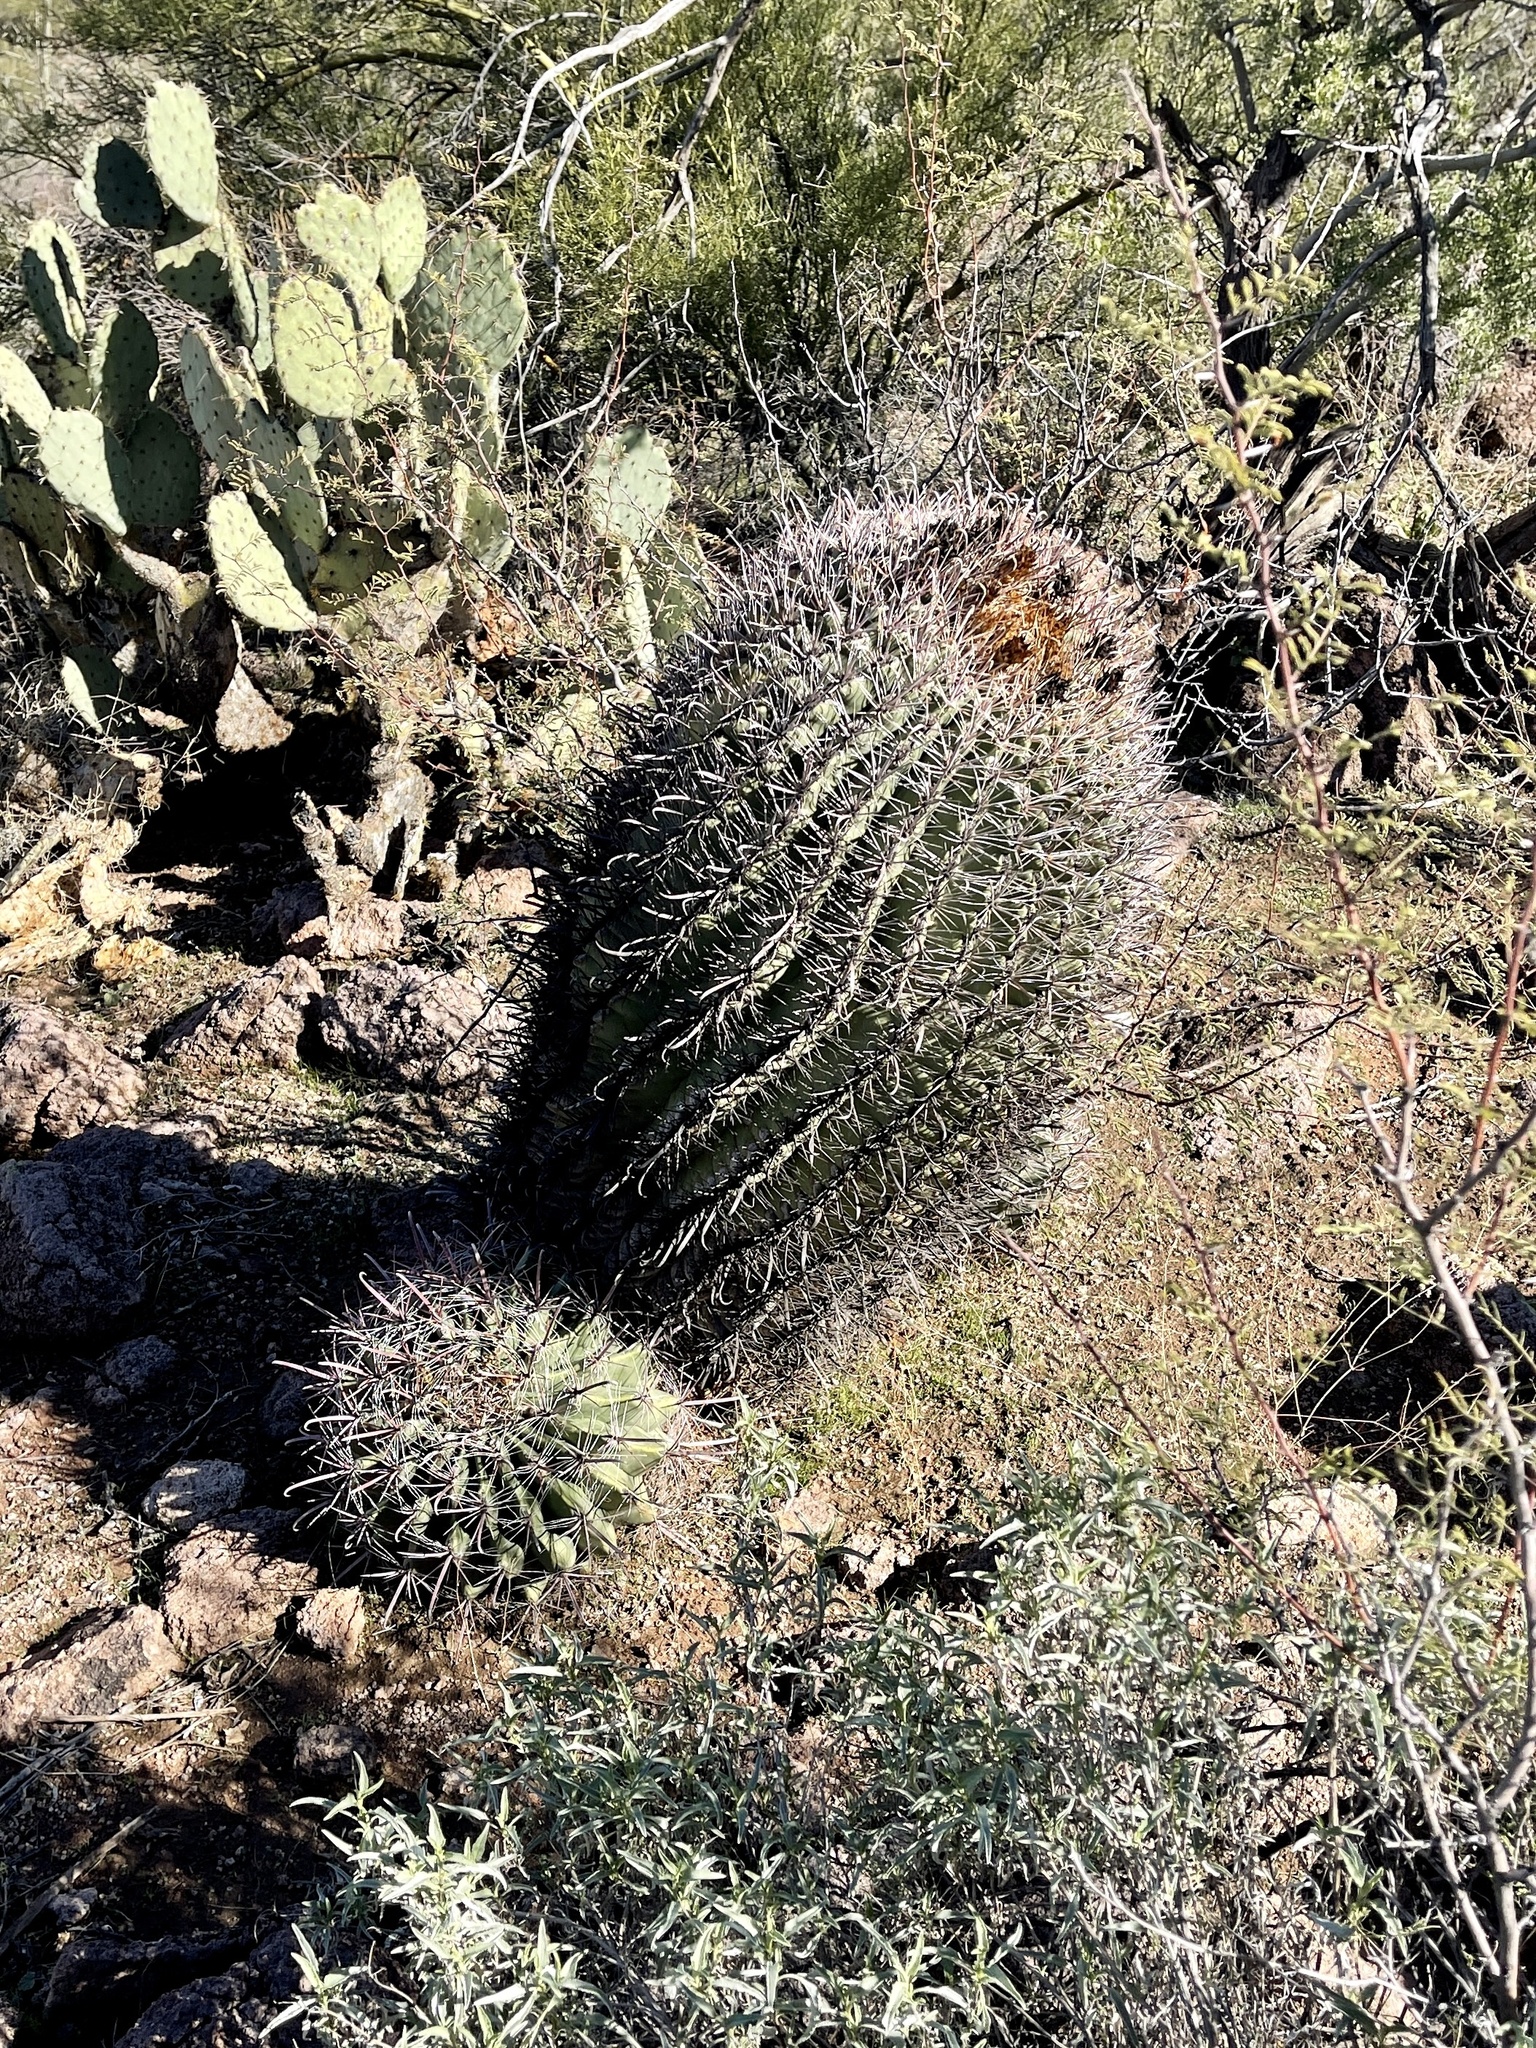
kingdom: Plantae
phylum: Tracheophyta
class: Magnoliopsida
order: Caryophyllales
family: Cactaceae
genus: Ferocactus
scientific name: Ferocactus wislizeni
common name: Candy barrel cactus
